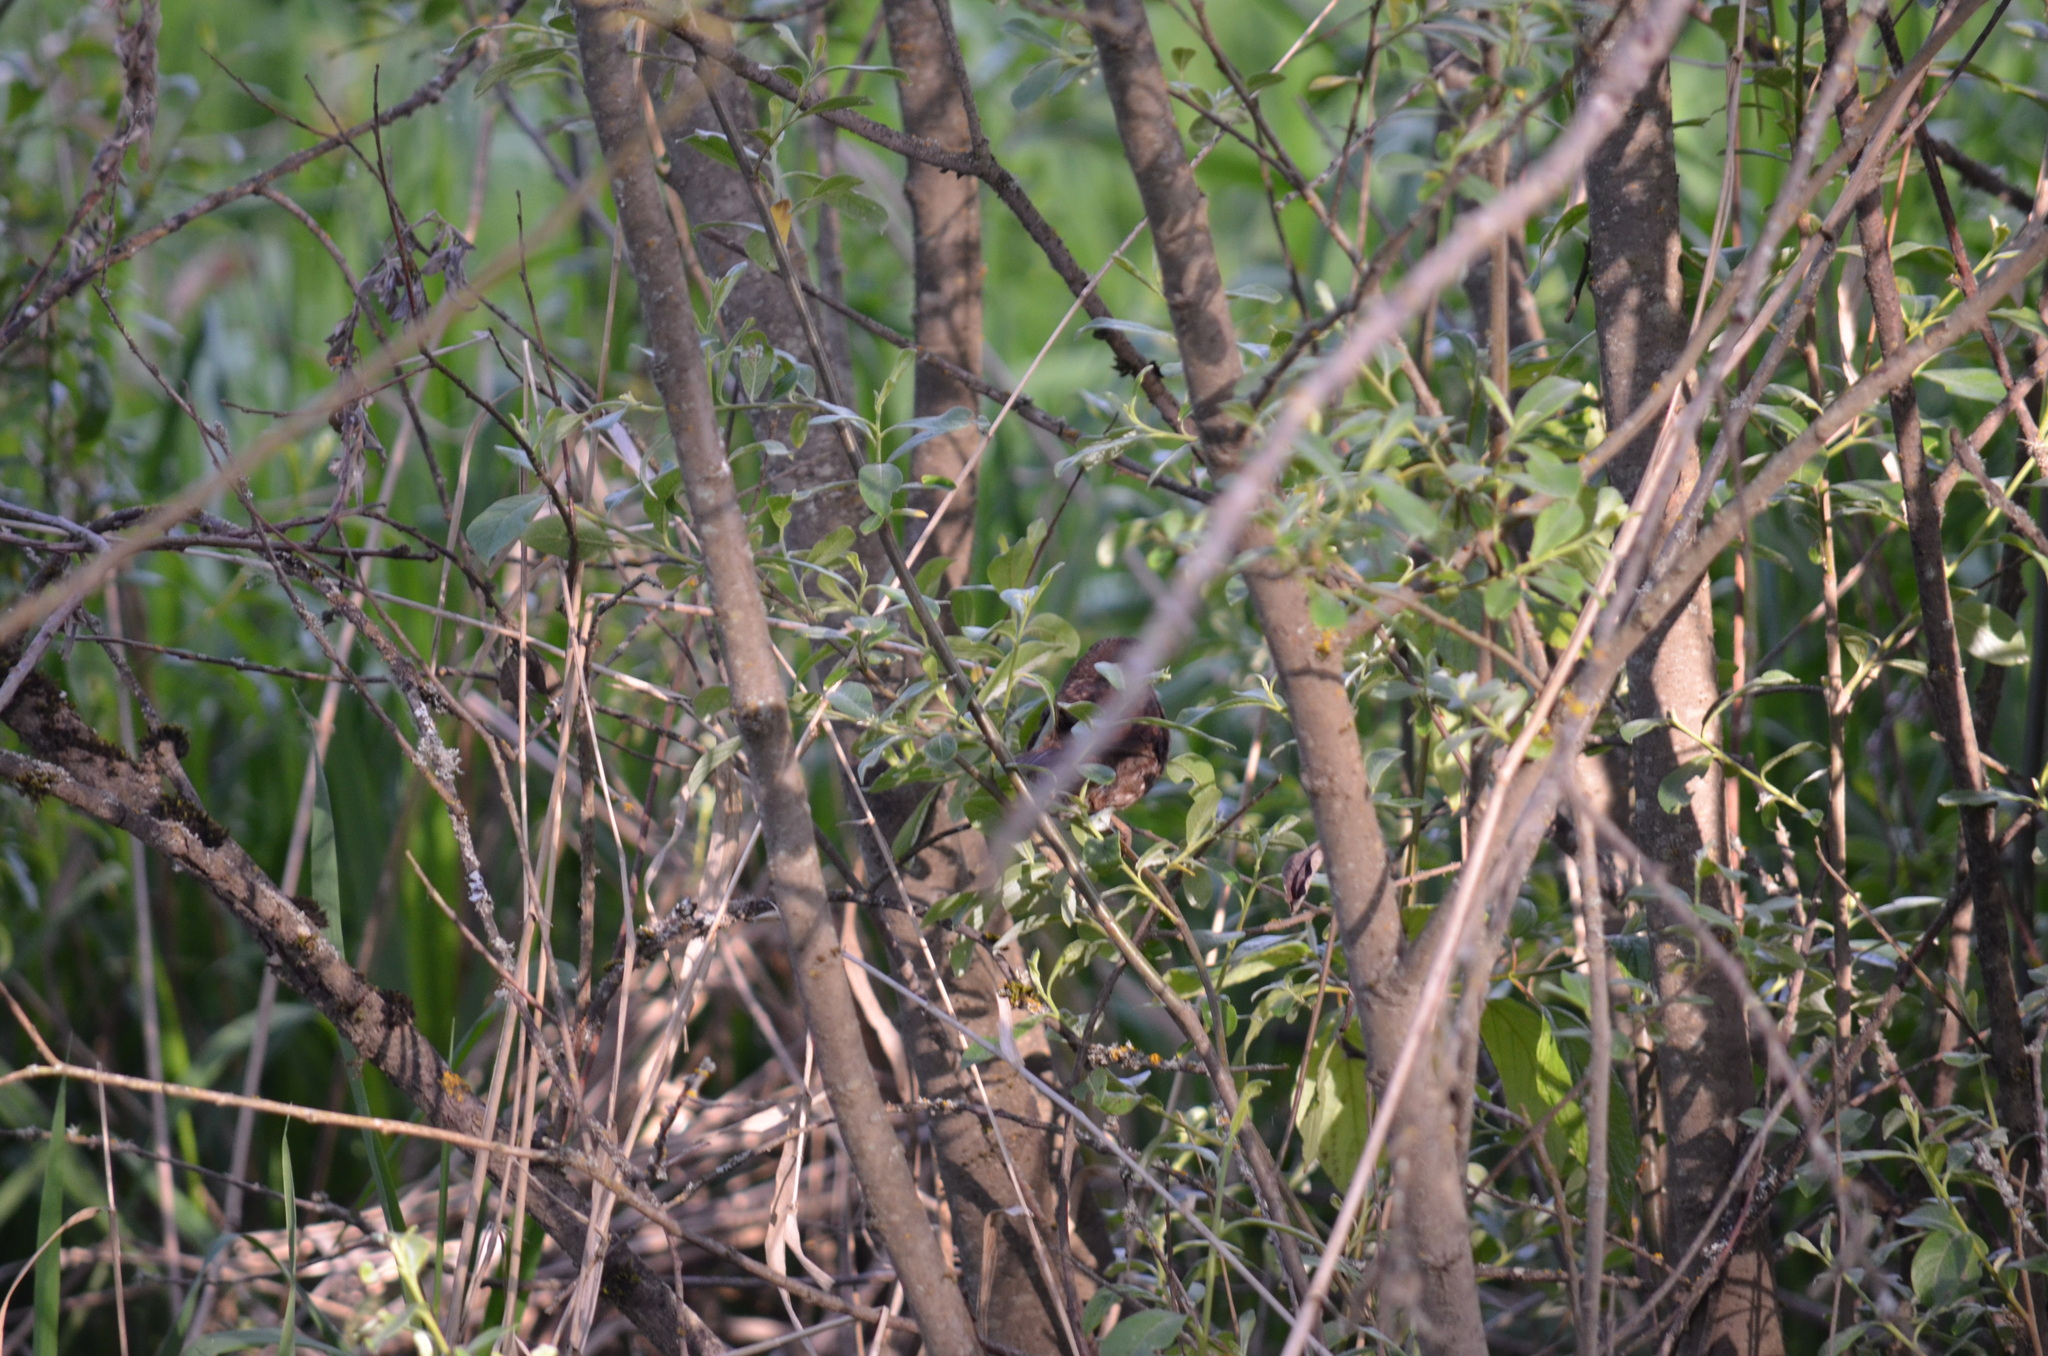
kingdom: Animalia
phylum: Chordata
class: Aves
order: Passeriformes
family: Passerellidae
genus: Melospiza
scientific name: Melospiza melodia
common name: Song sparrow
